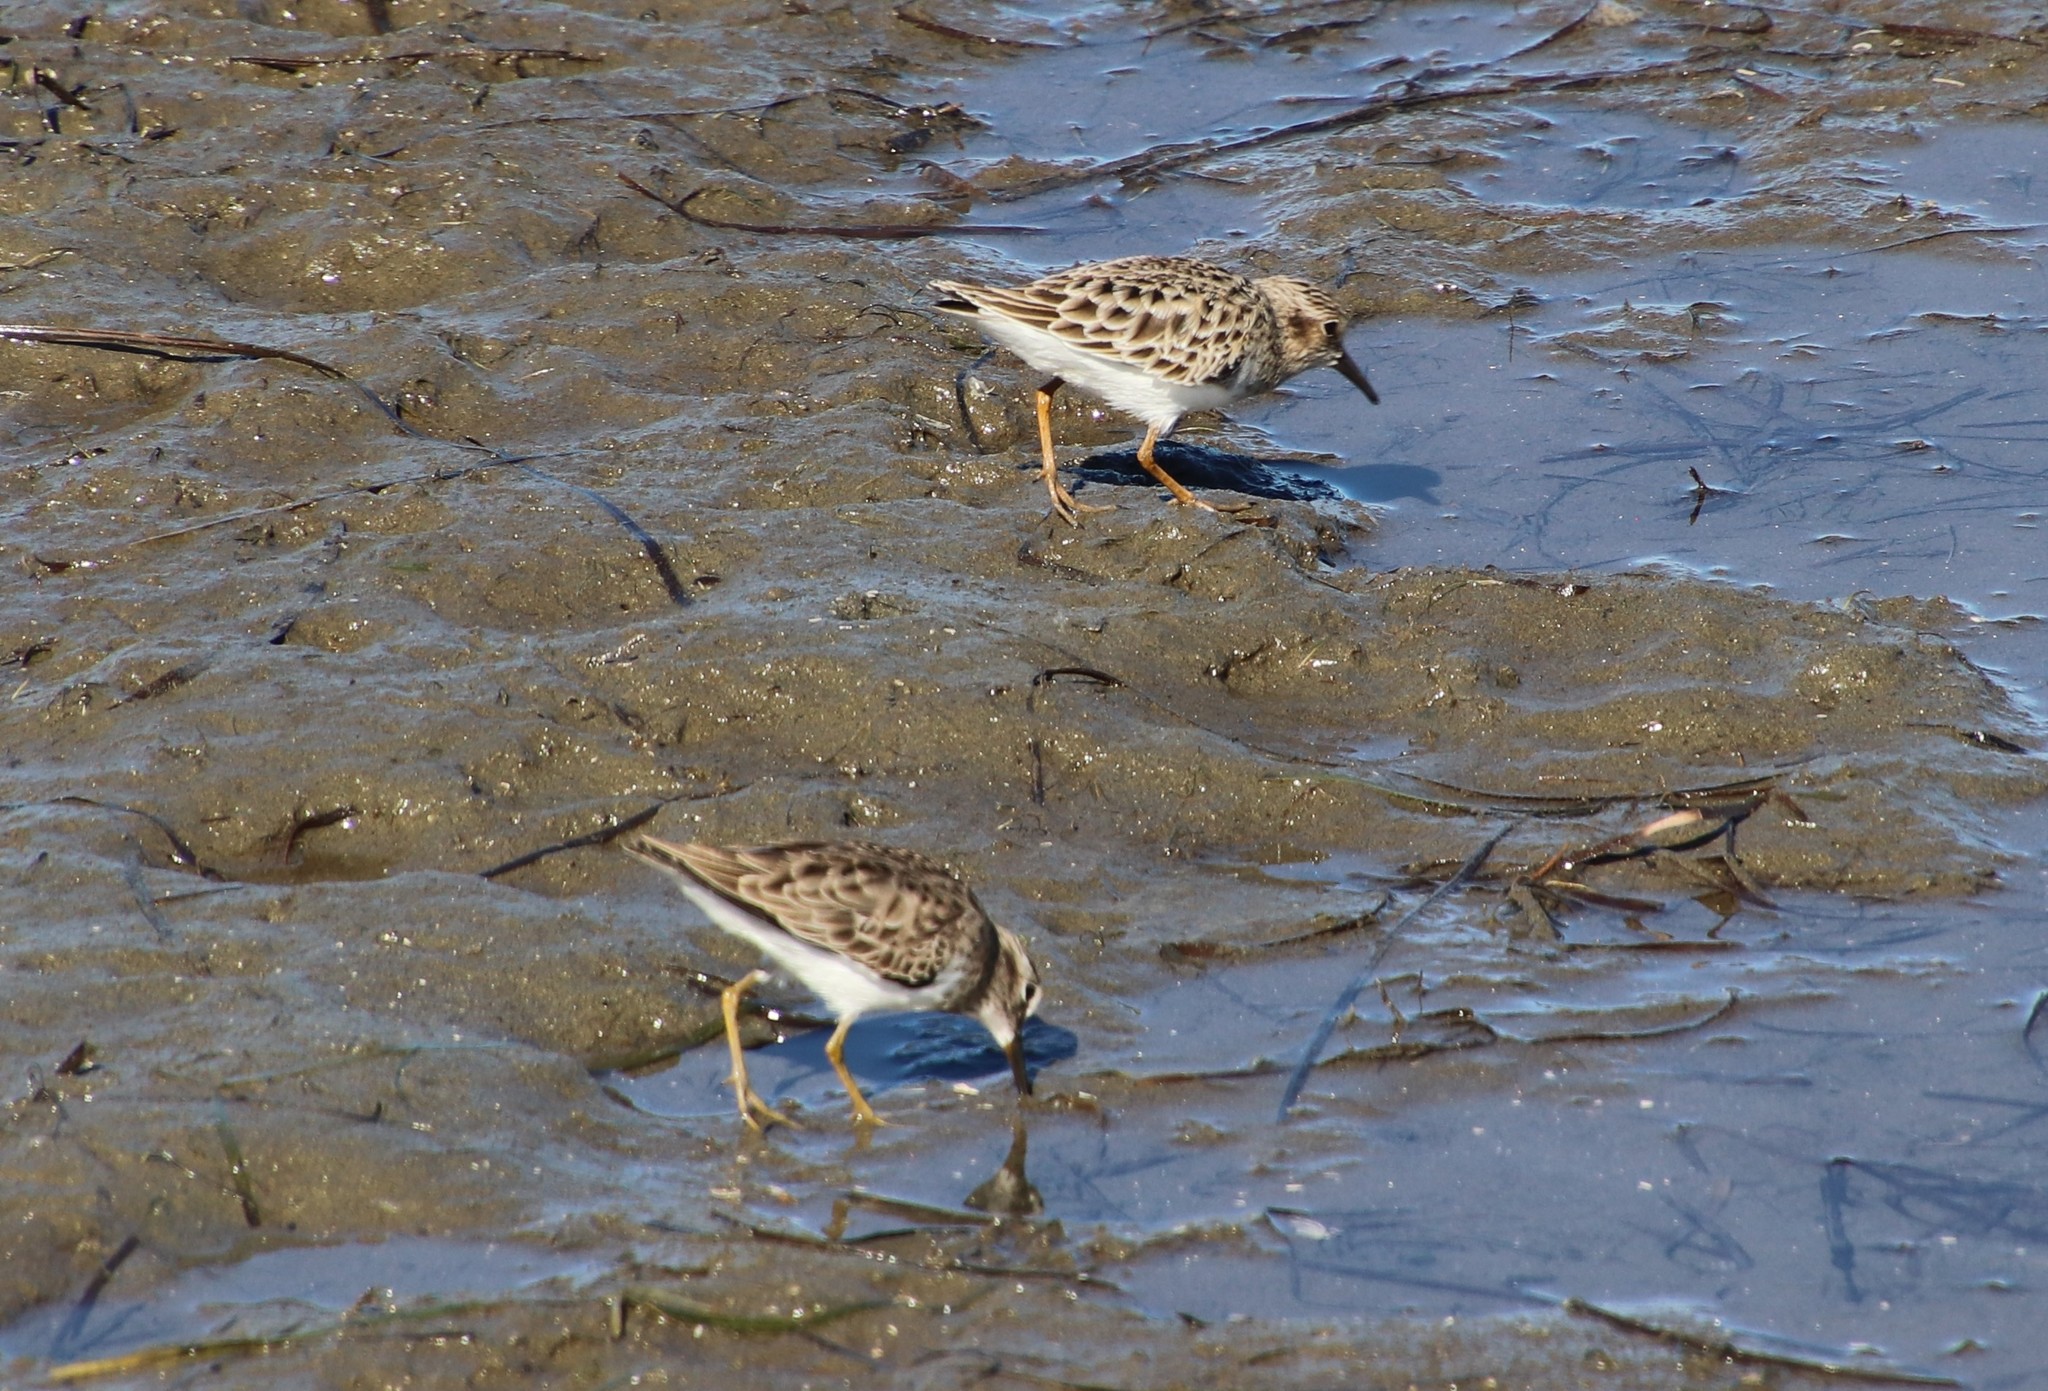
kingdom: Animalia
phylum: Chordata
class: Aves
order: Charadriiformes
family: Scolopacidae
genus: Calidris
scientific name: Calidris minutilla
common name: Least sandpiper
